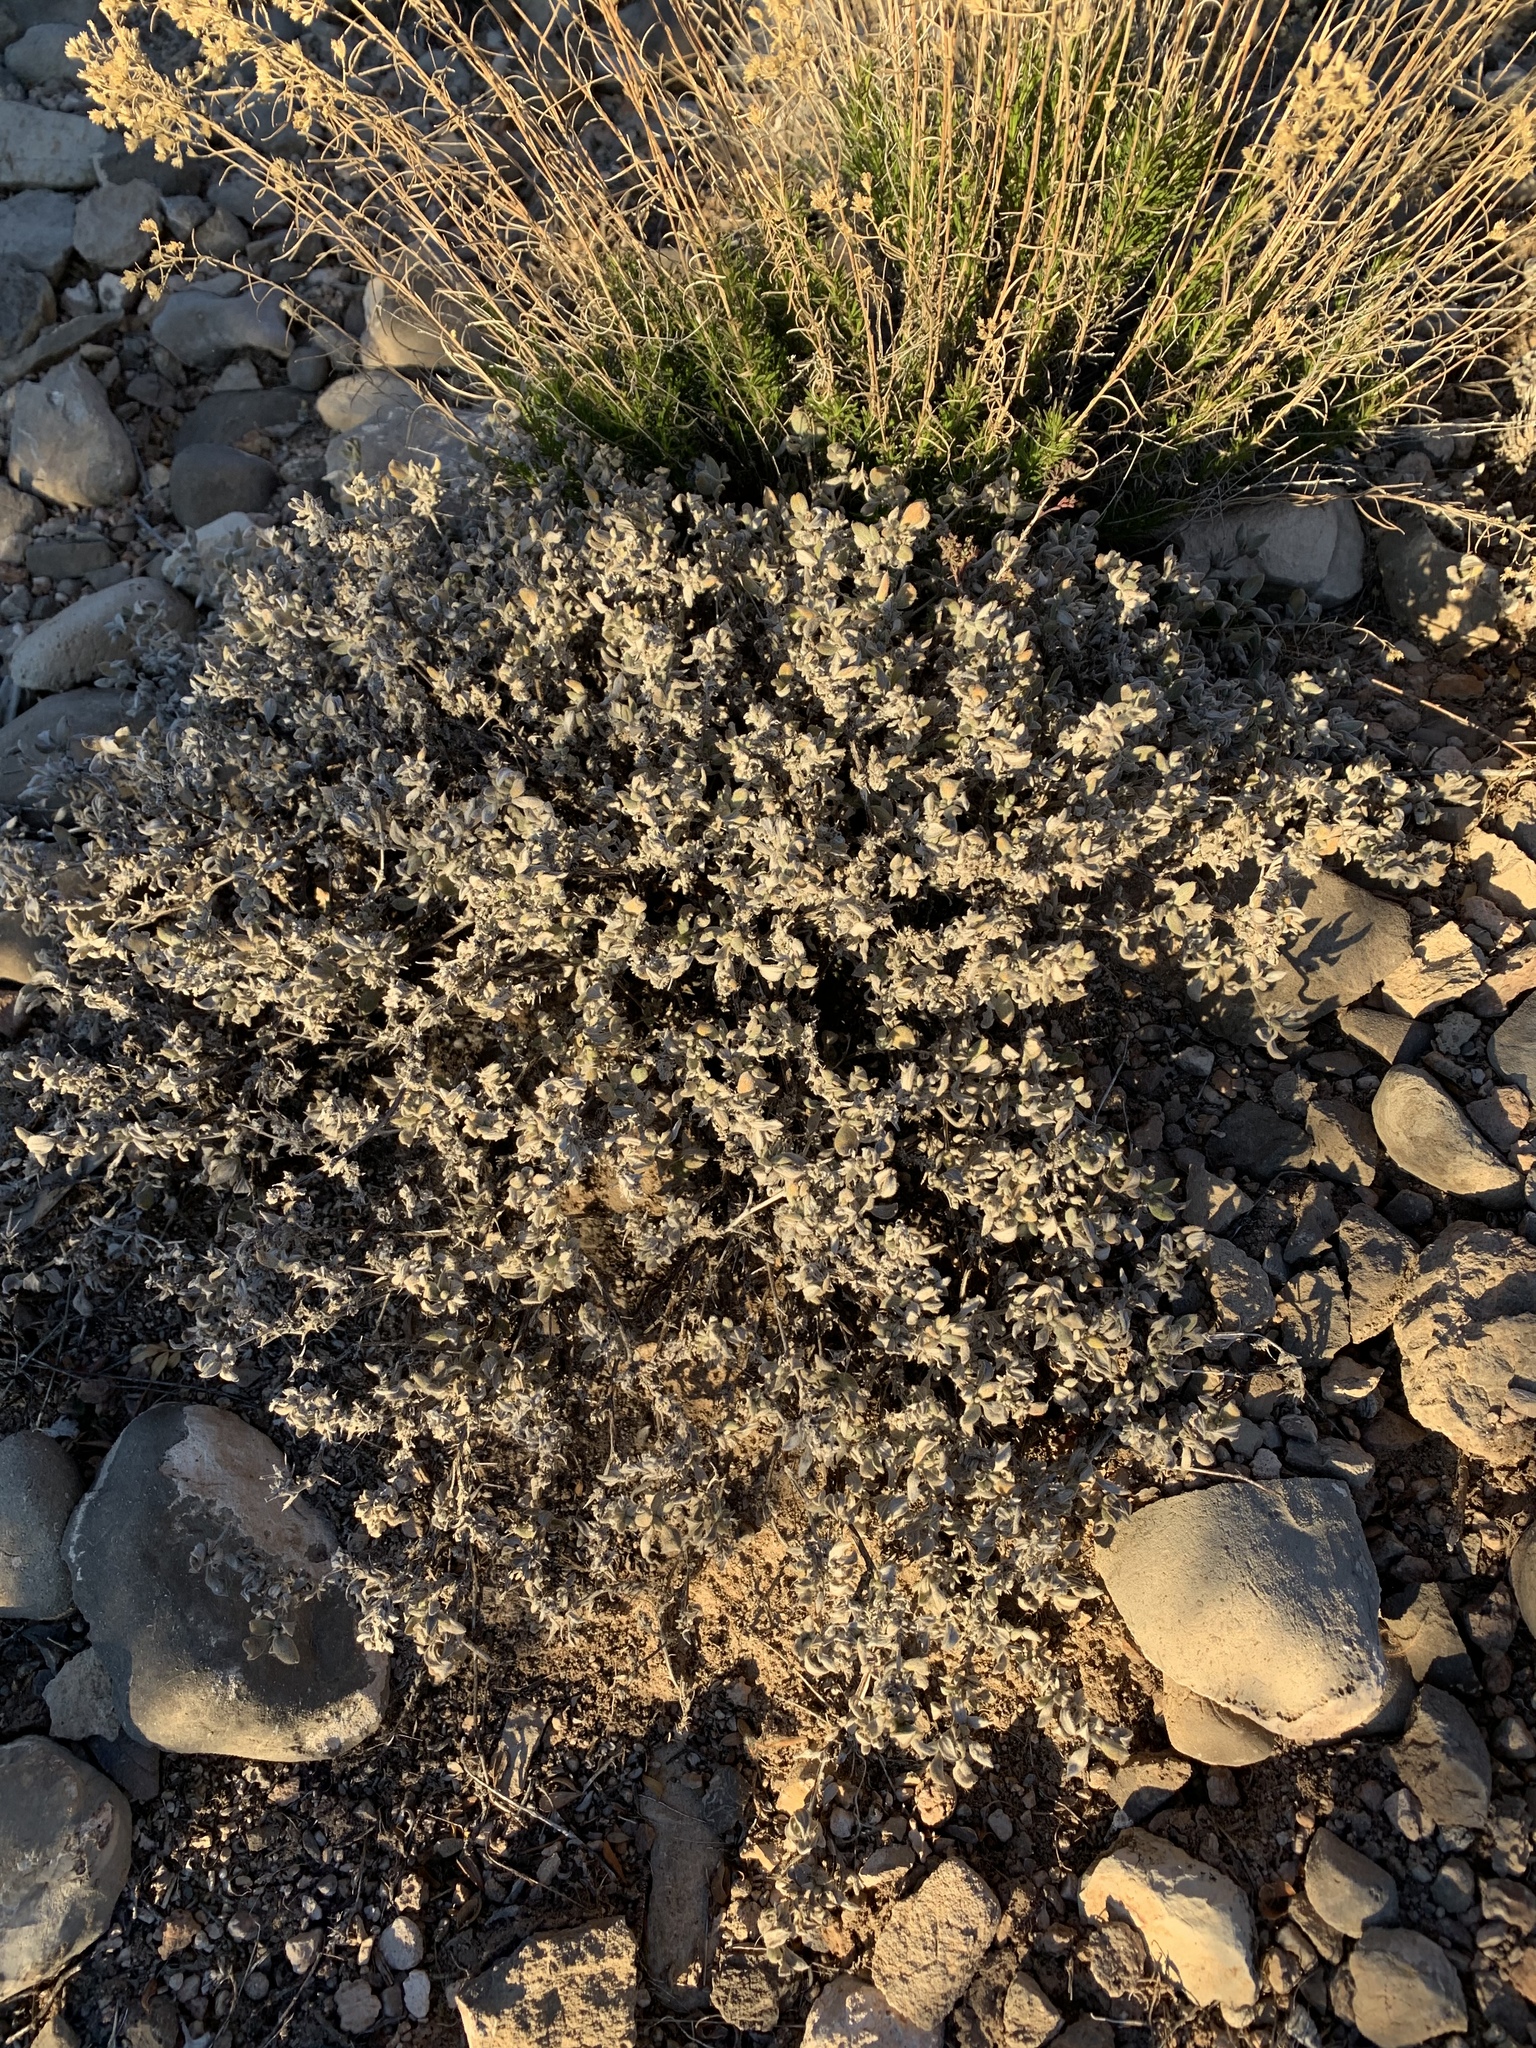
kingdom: Plantae
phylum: Tracheophyta
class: Magnoliopsida
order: Boraginales
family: Ehretiaceae
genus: Tiquilia
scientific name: Tiquilia canescens
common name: Hairy tiquilia
